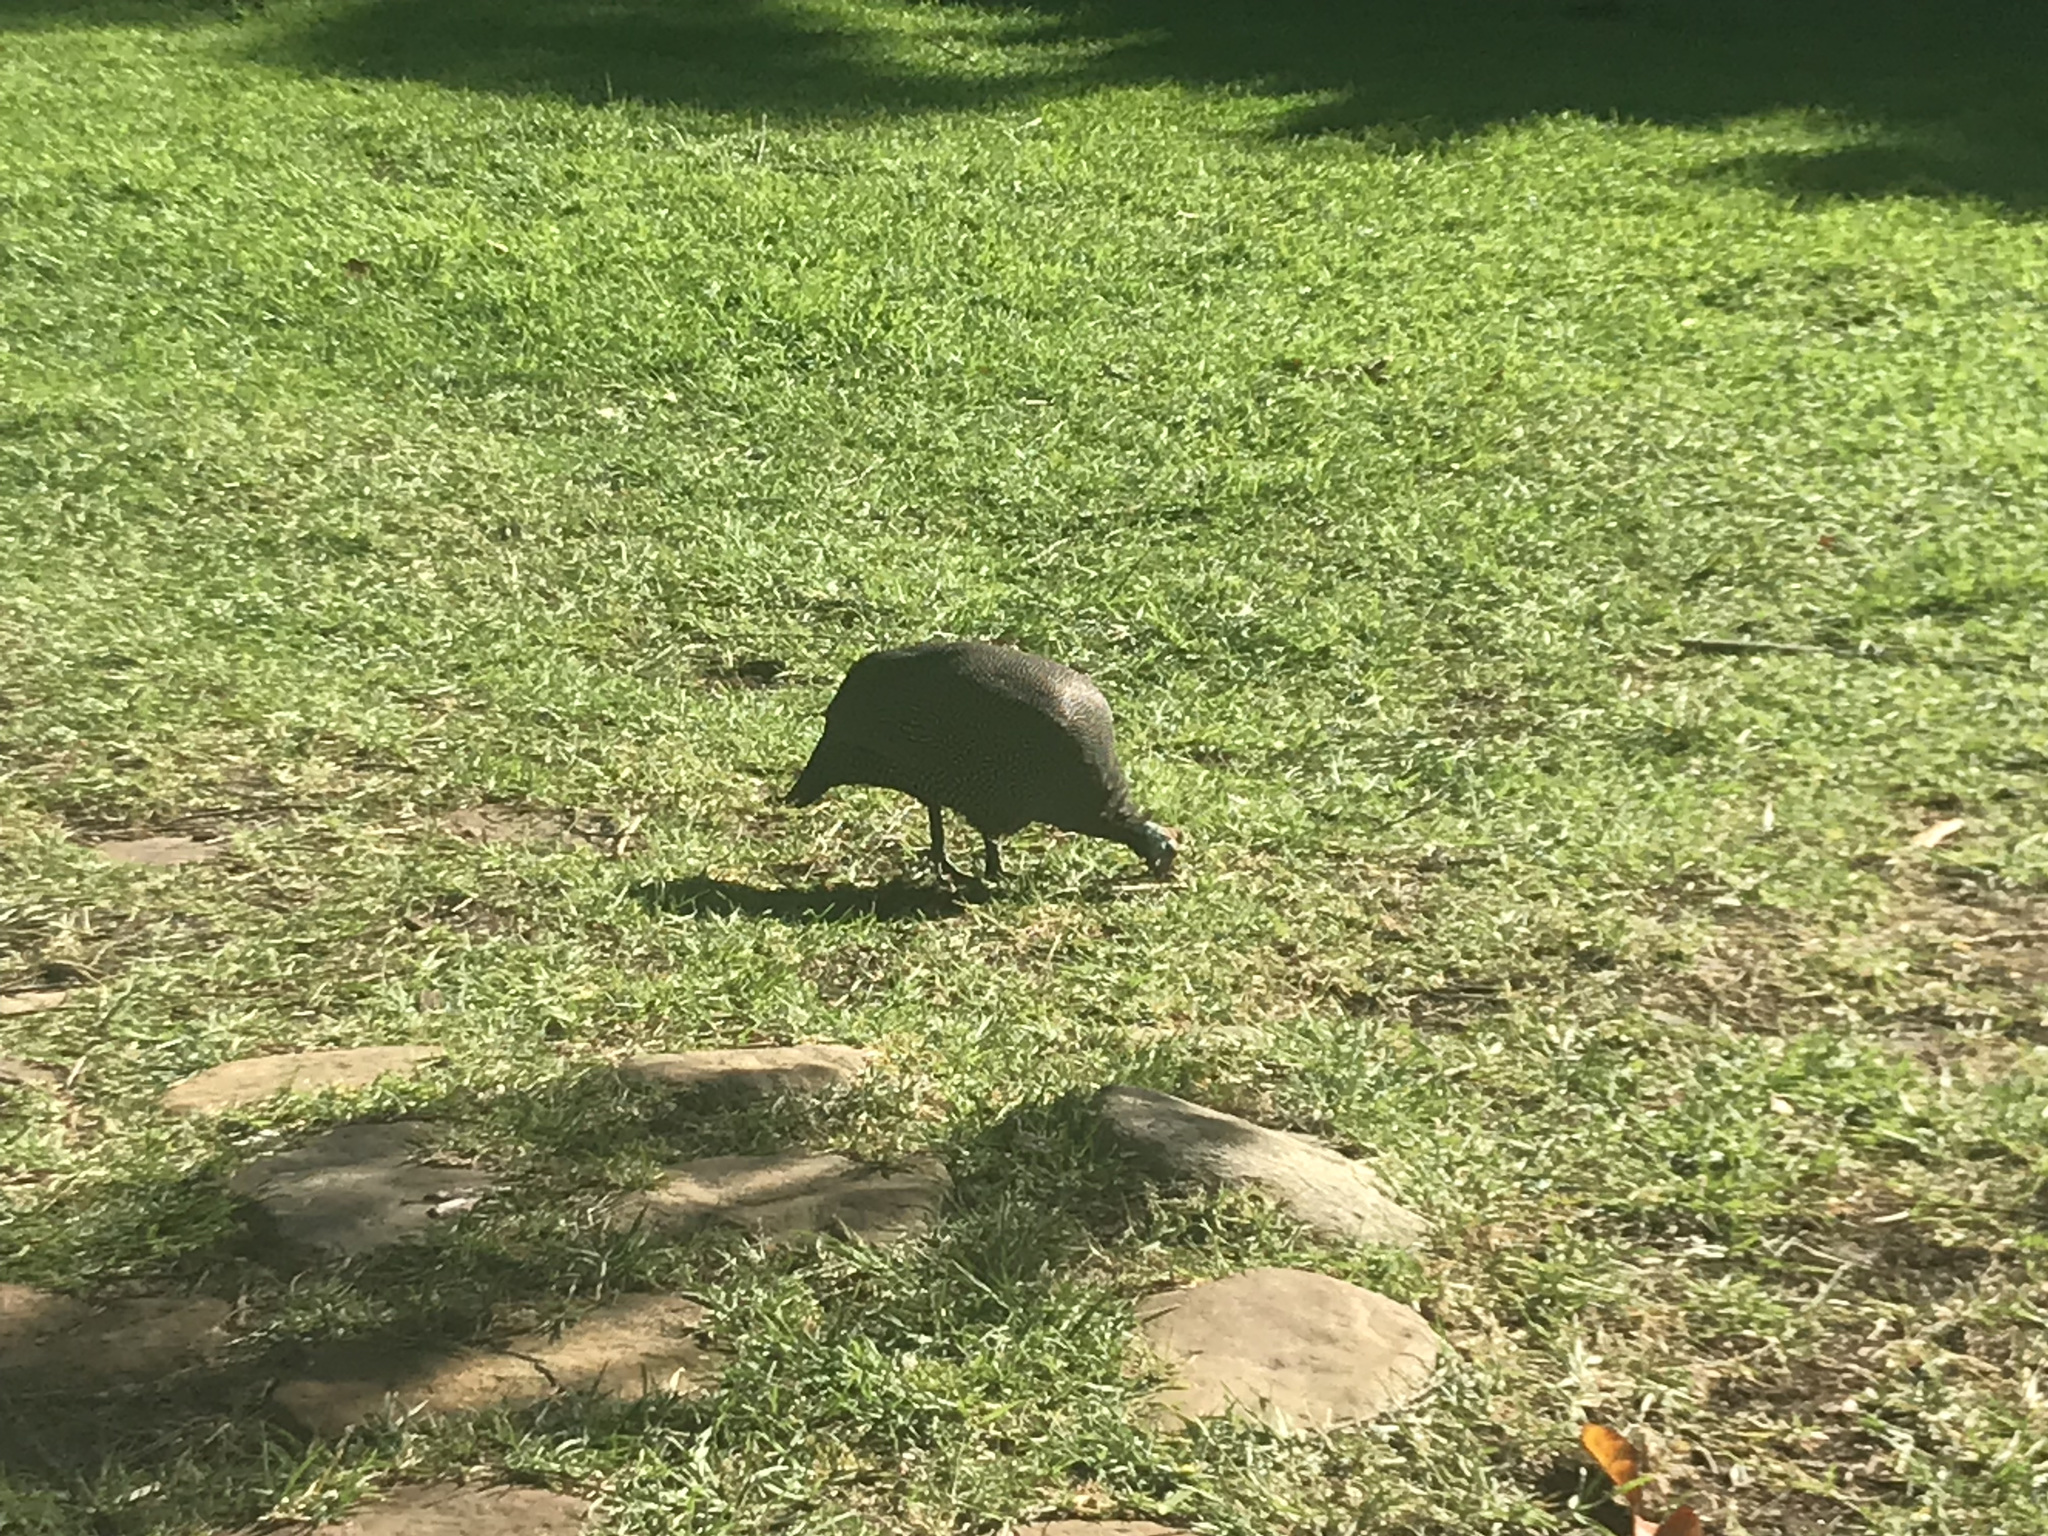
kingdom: Animalia
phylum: Chordata
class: Aves
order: Galliformes
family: Numididae
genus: Numida
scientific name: Numida meleagris
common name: Helmeted guineafowl
